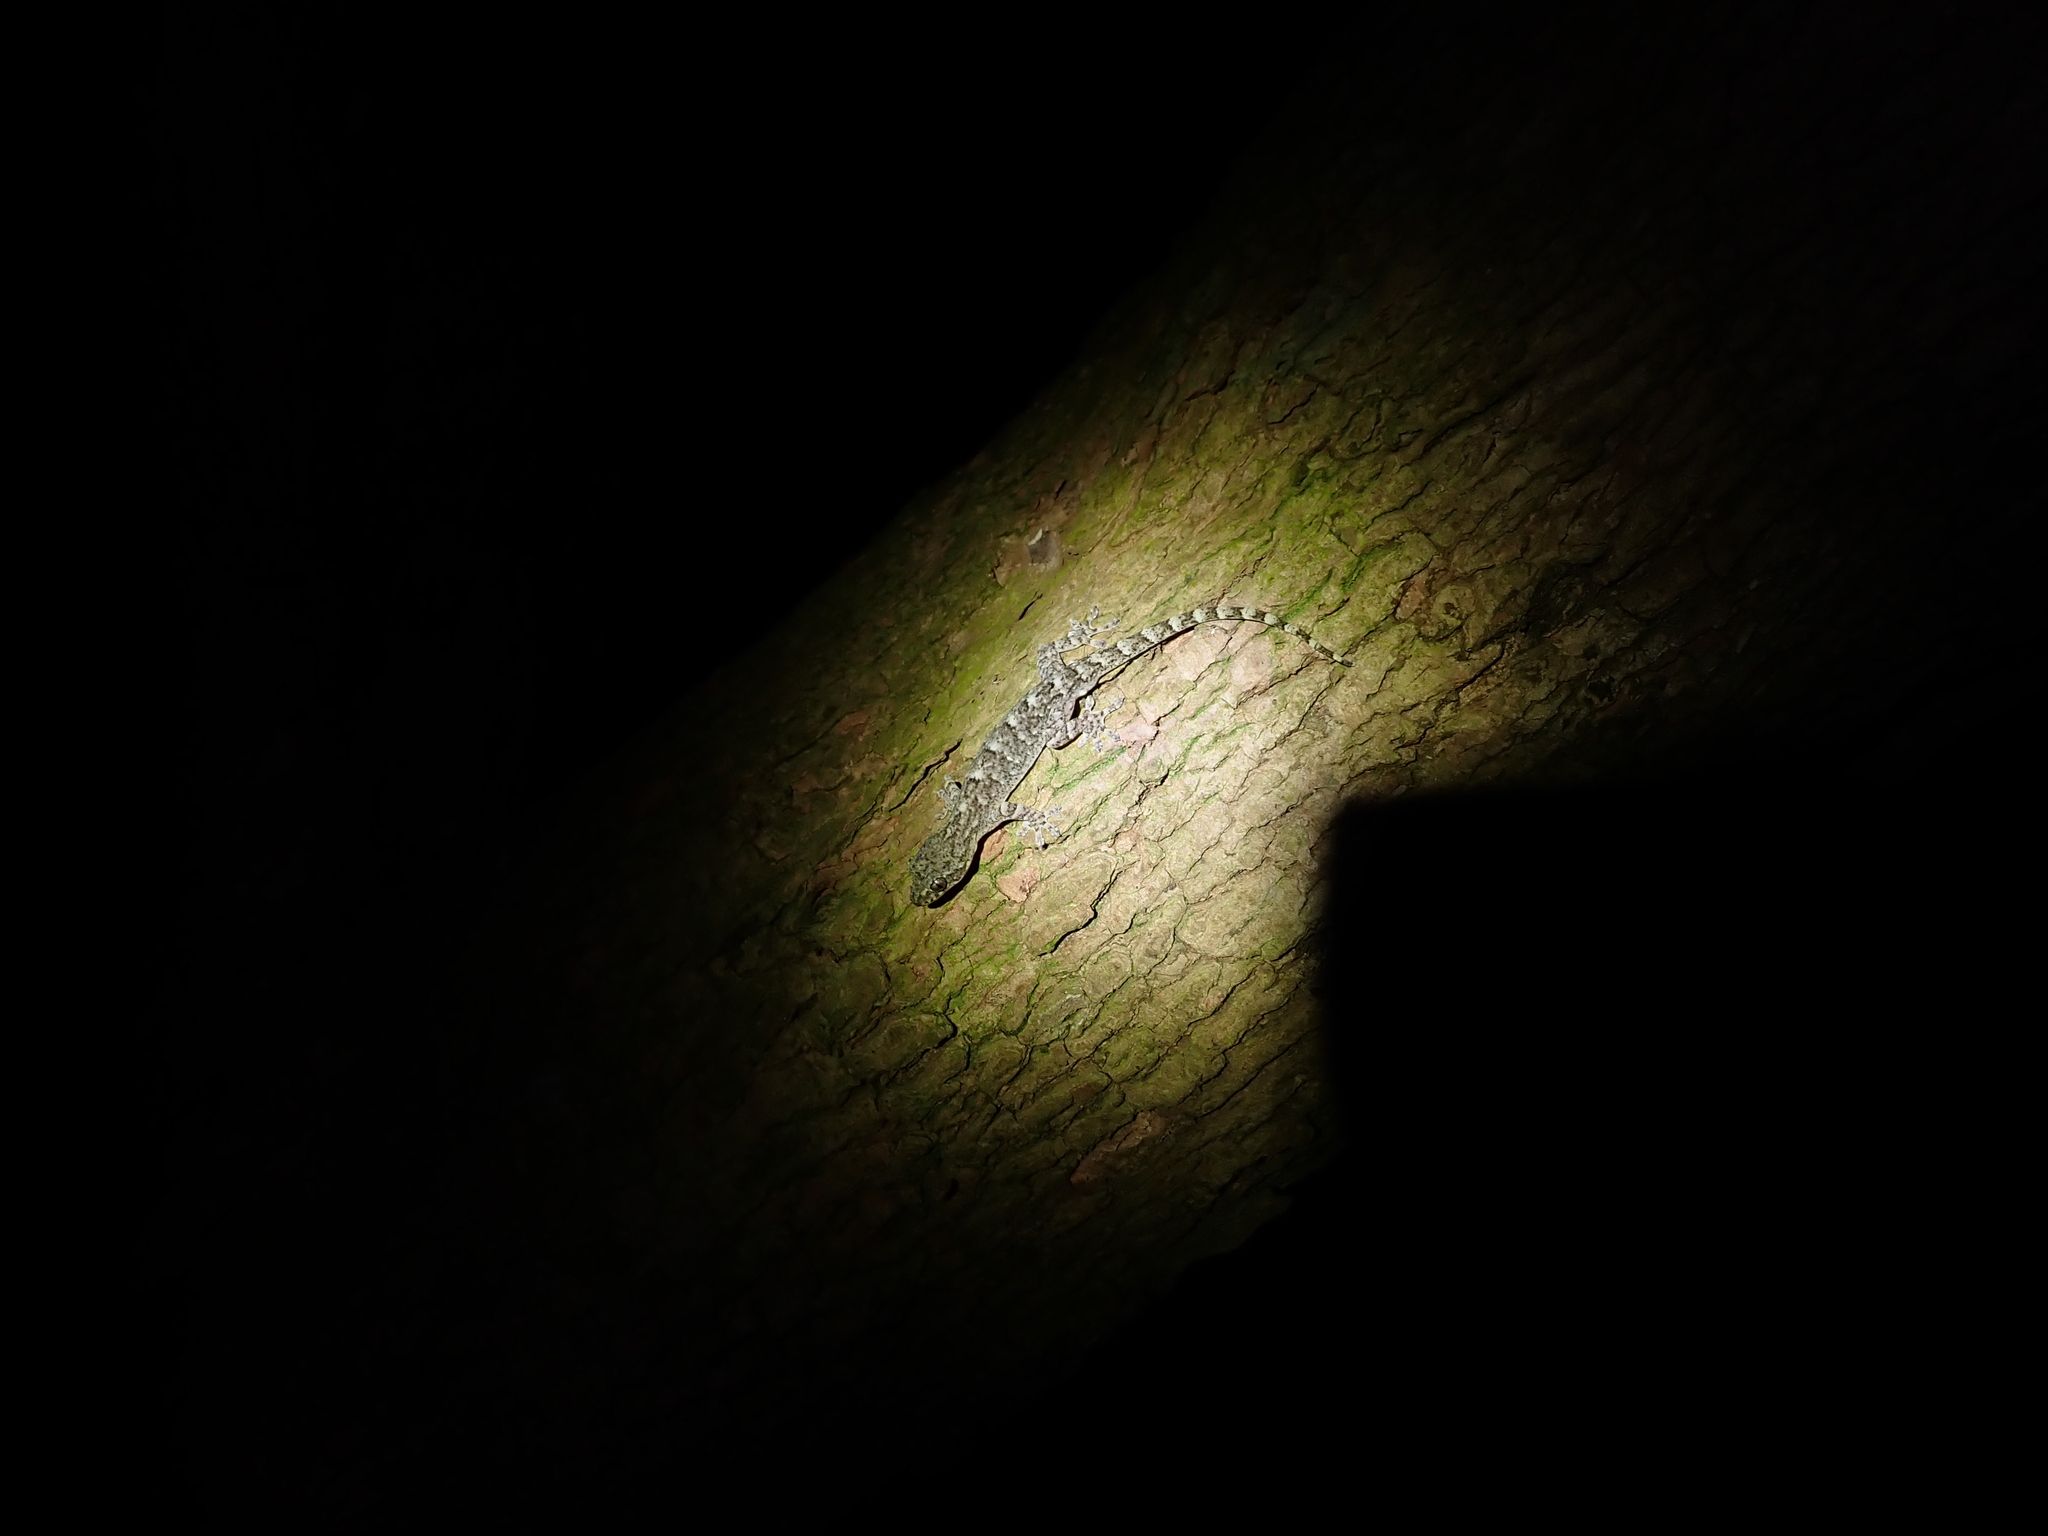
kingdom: Animalia
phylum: Chordata
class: Squamata
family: Gekkonidae
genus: Gekko
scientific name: Gekko hokouensis
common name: Kwangsi gecko
